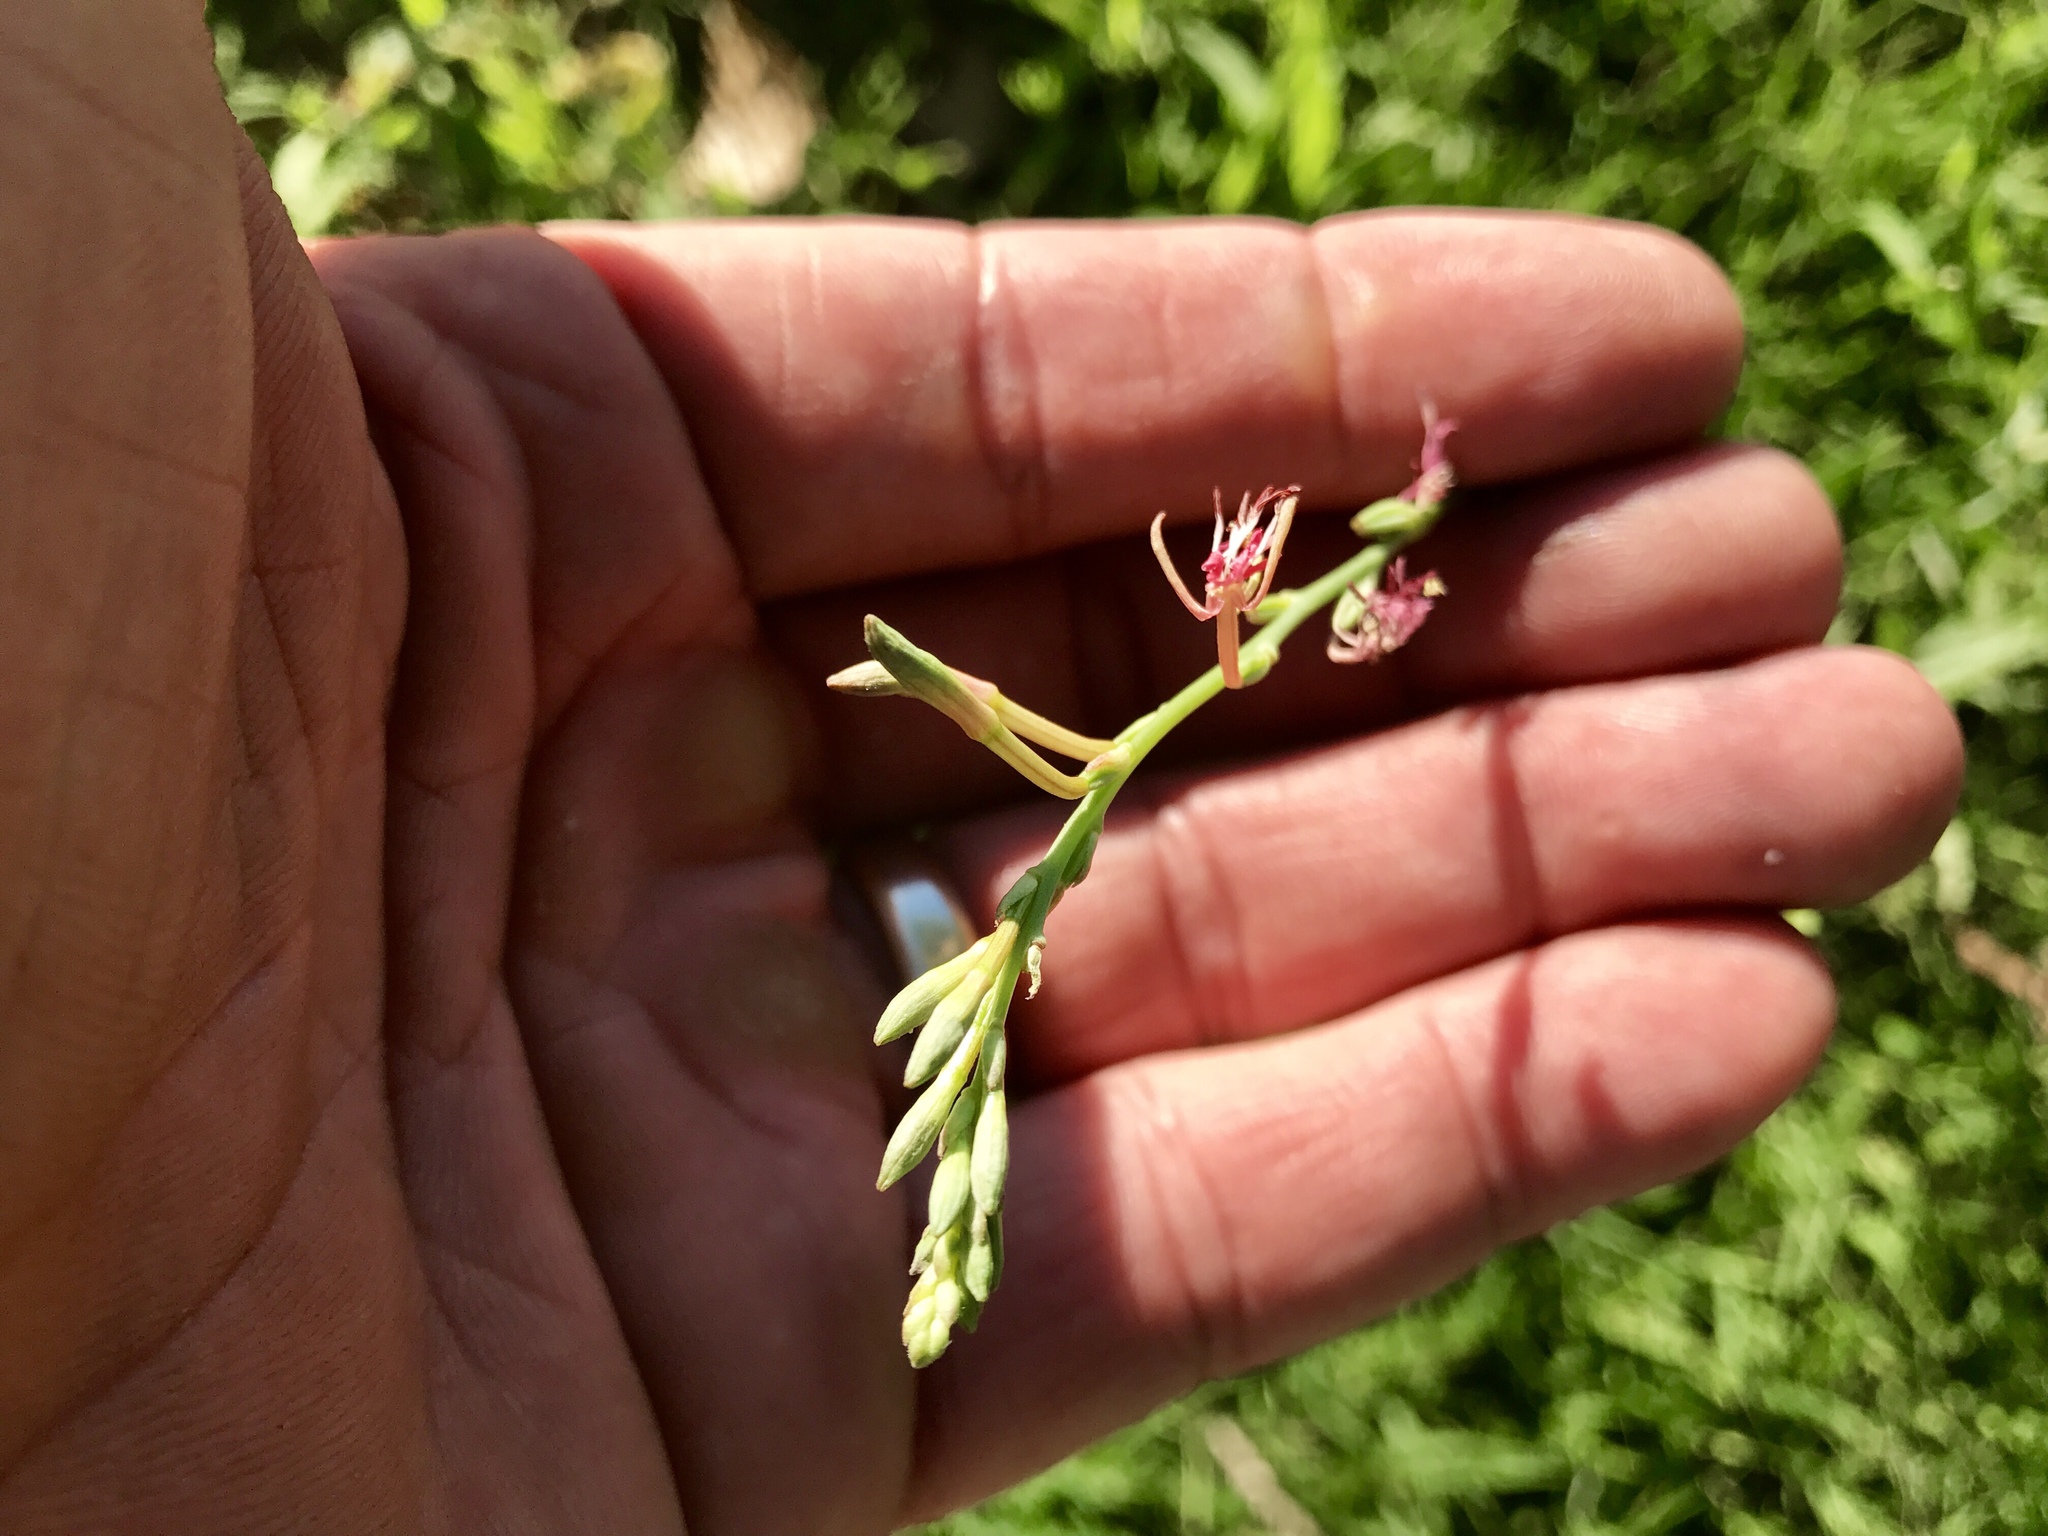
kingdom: Plantae
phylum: Tracheophyta
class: Magnoliopsida
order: Myrtales
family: Onagraceae
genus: Oenothera
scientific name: Oenothera podocarpa
